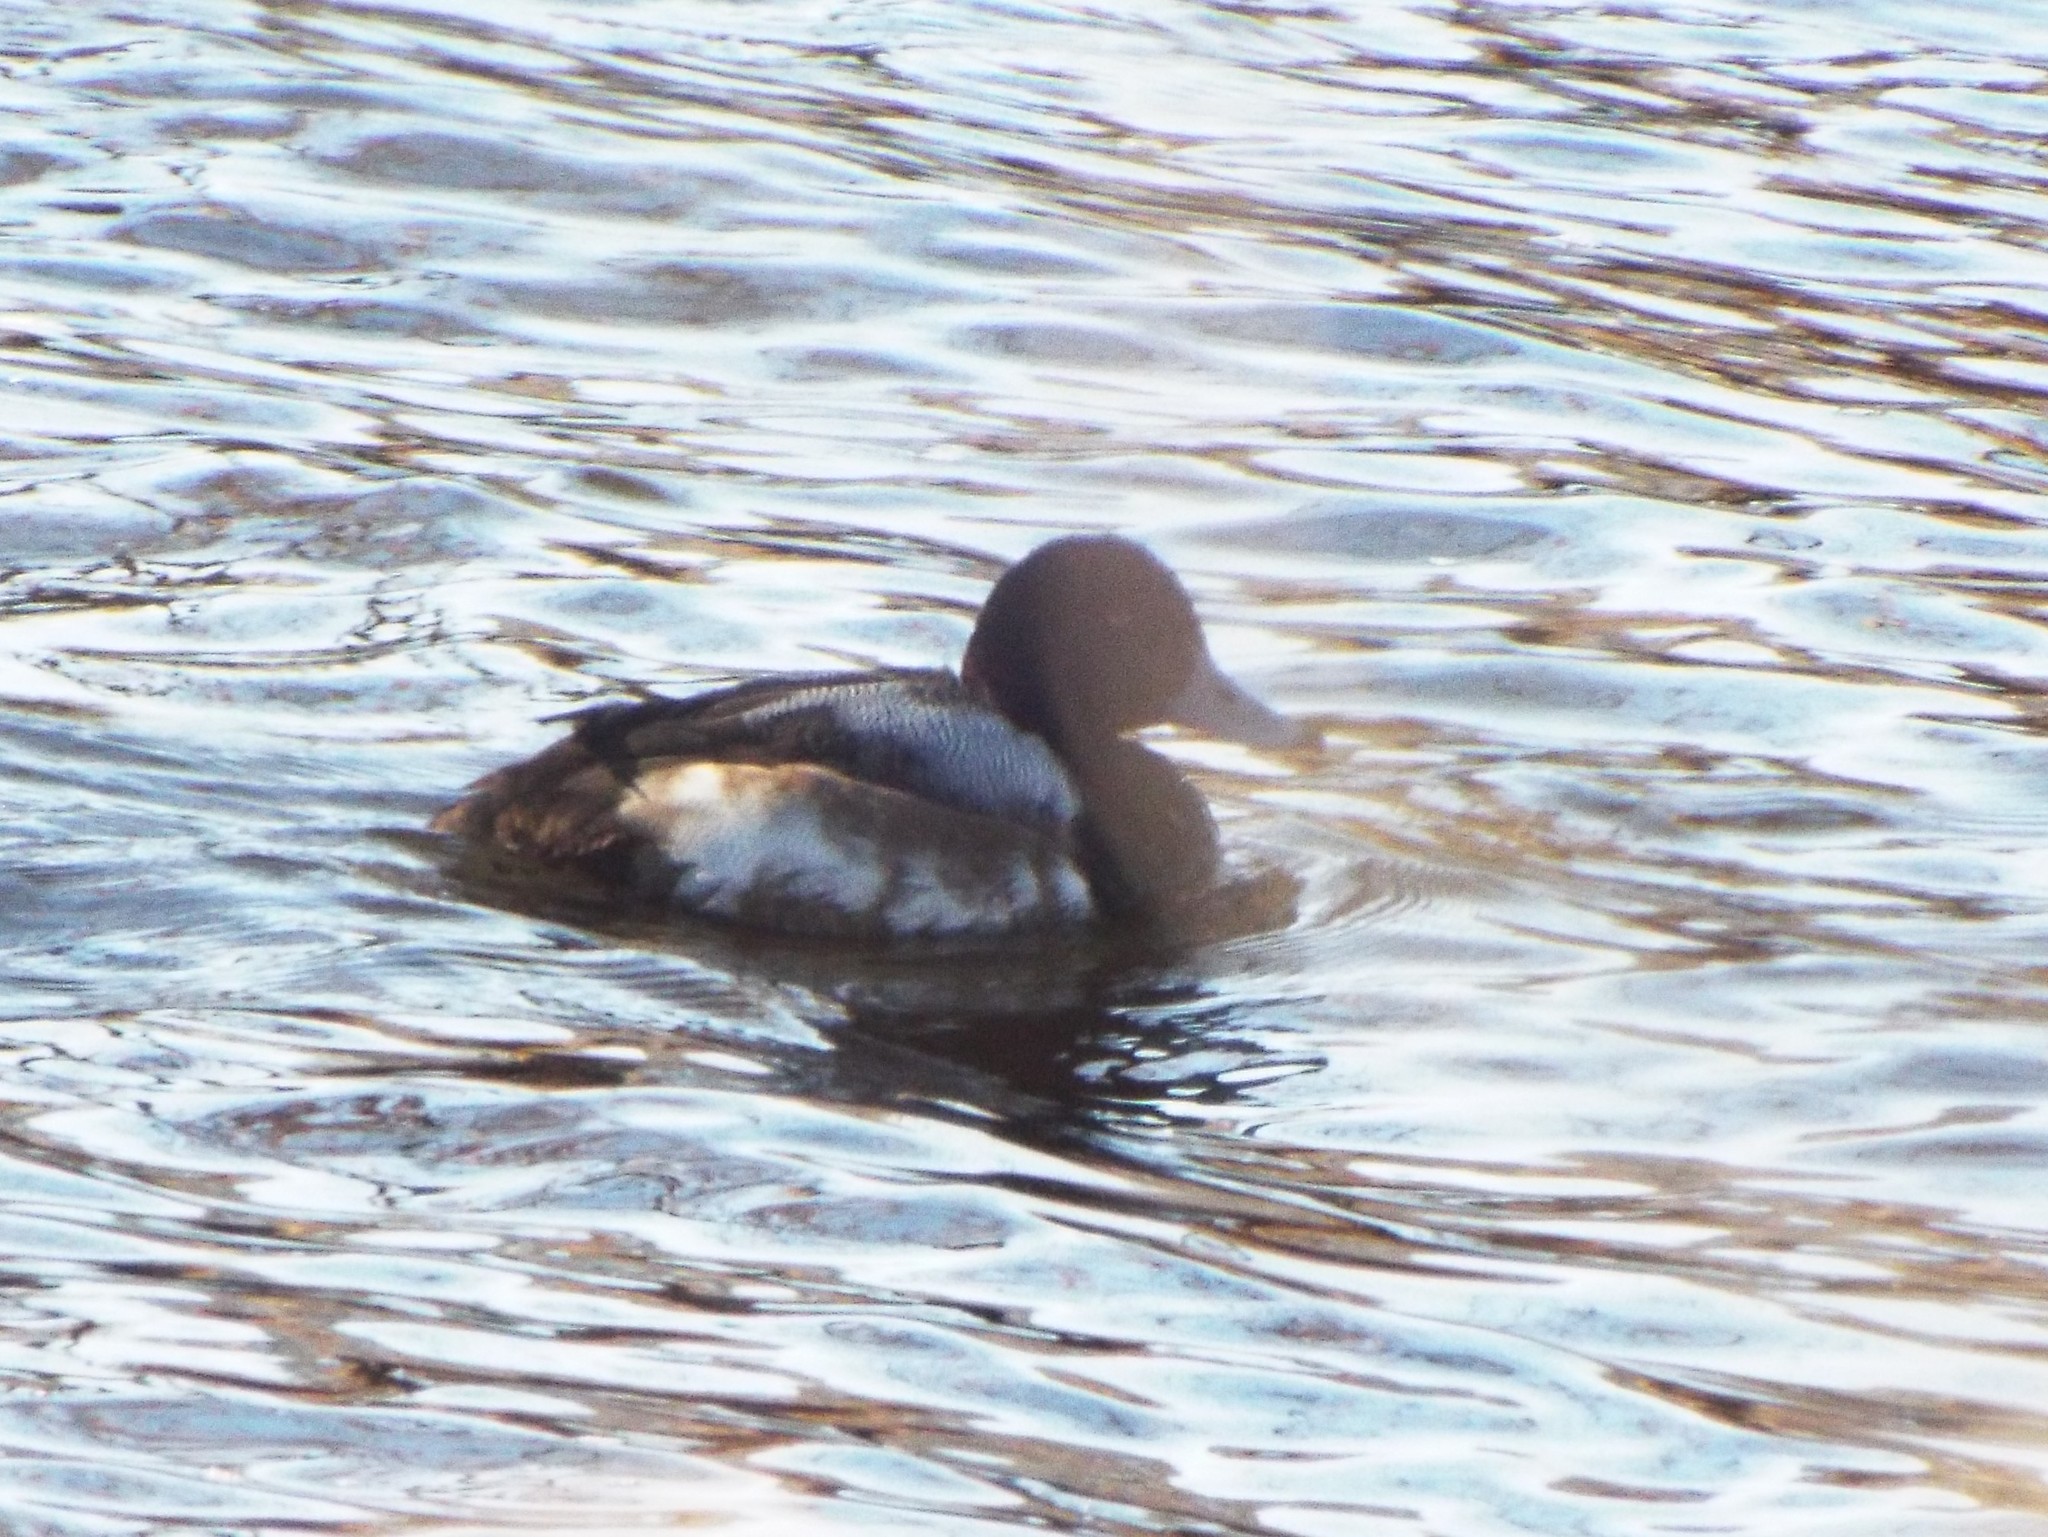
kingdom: Animalia
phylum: Chordata
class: Aves
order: Anseriformes
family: Anatidae
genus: Aythya
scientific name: Aythya marila
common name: Greater scaup
